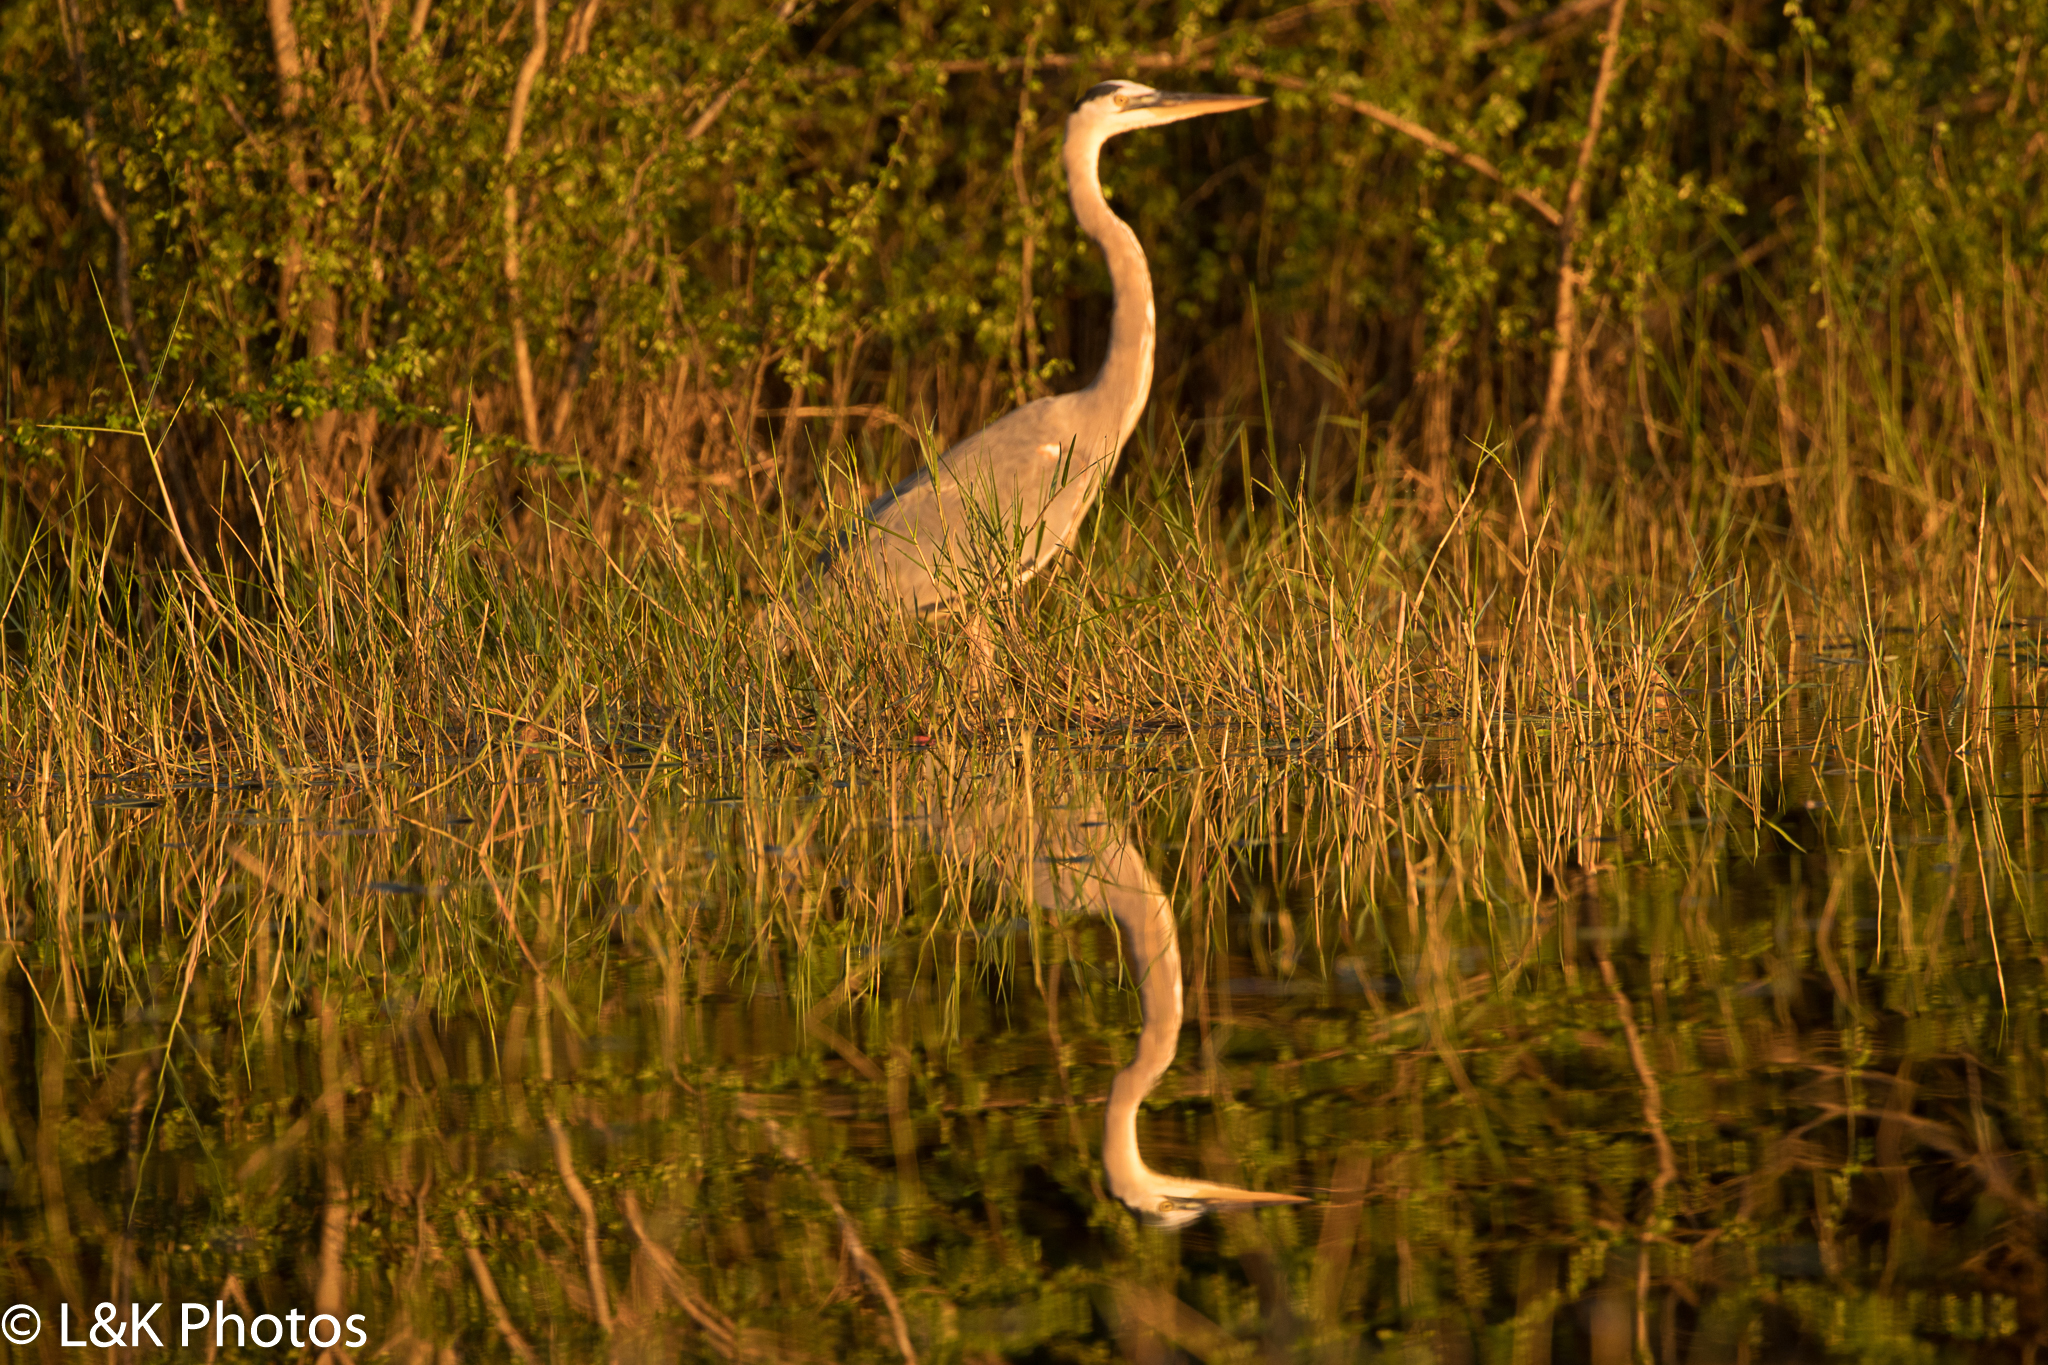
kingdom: Animalia
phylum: Chordata
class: Aves
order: Pelecaniformes
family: Ardeidae
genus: Ardea
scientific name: Ardea herodias
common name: Great blue heron
